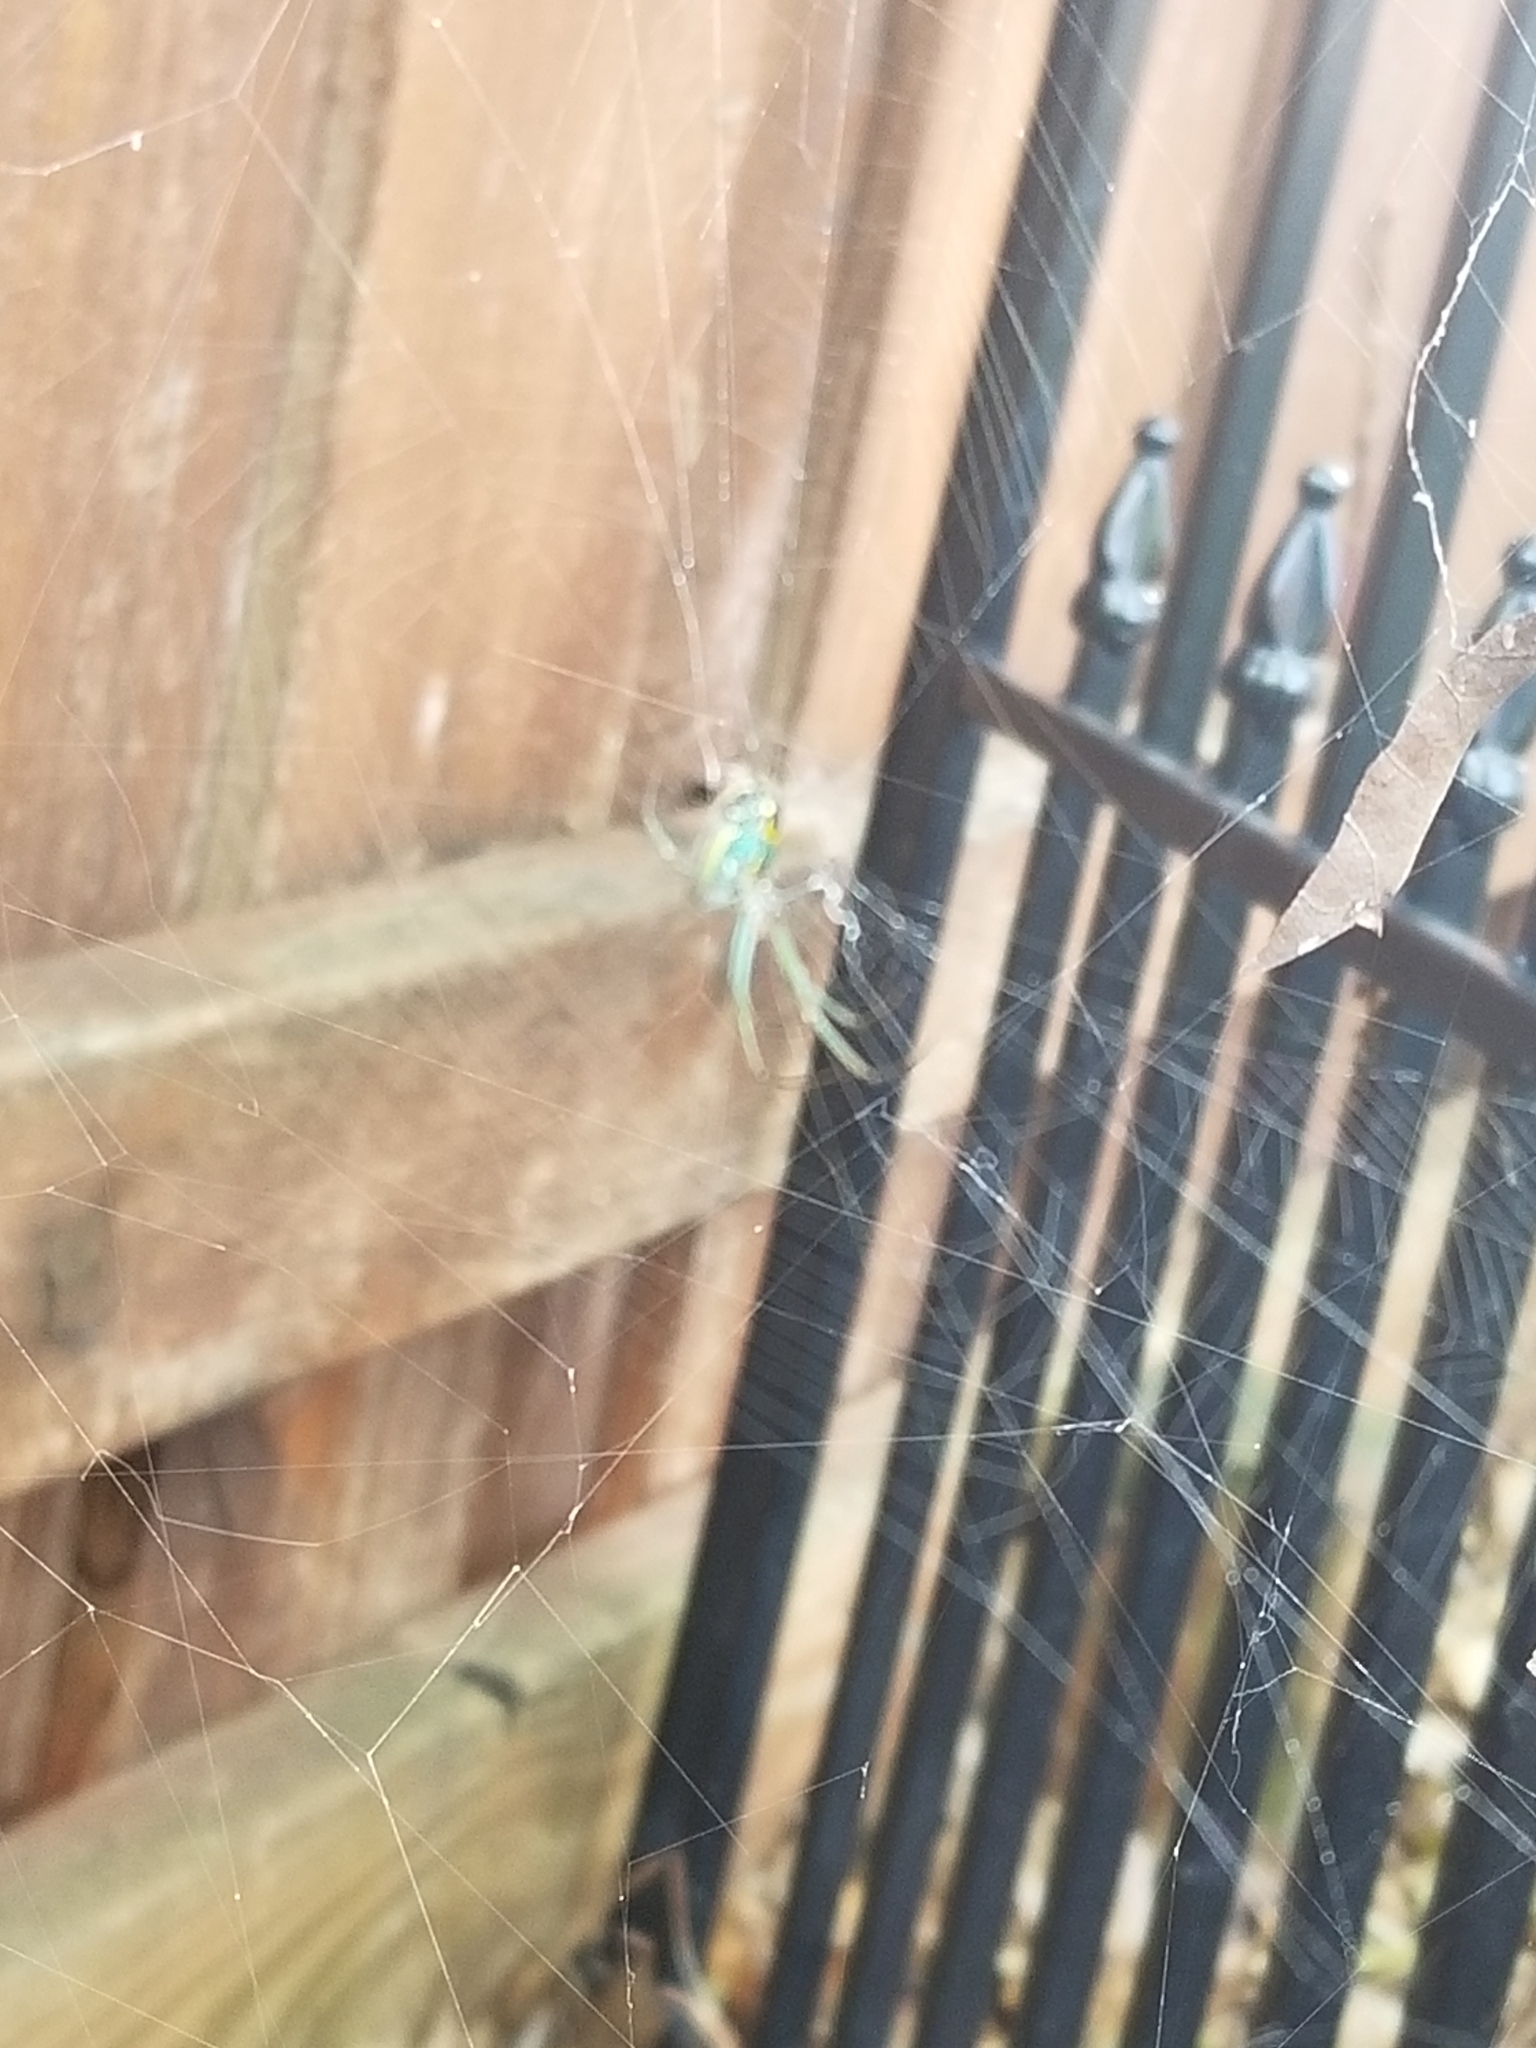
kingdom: Animalia
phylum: Arthropoda
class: Arachnida
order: Araneae
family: Tetragnathidae
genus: Leucauge
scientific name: Leucauge
